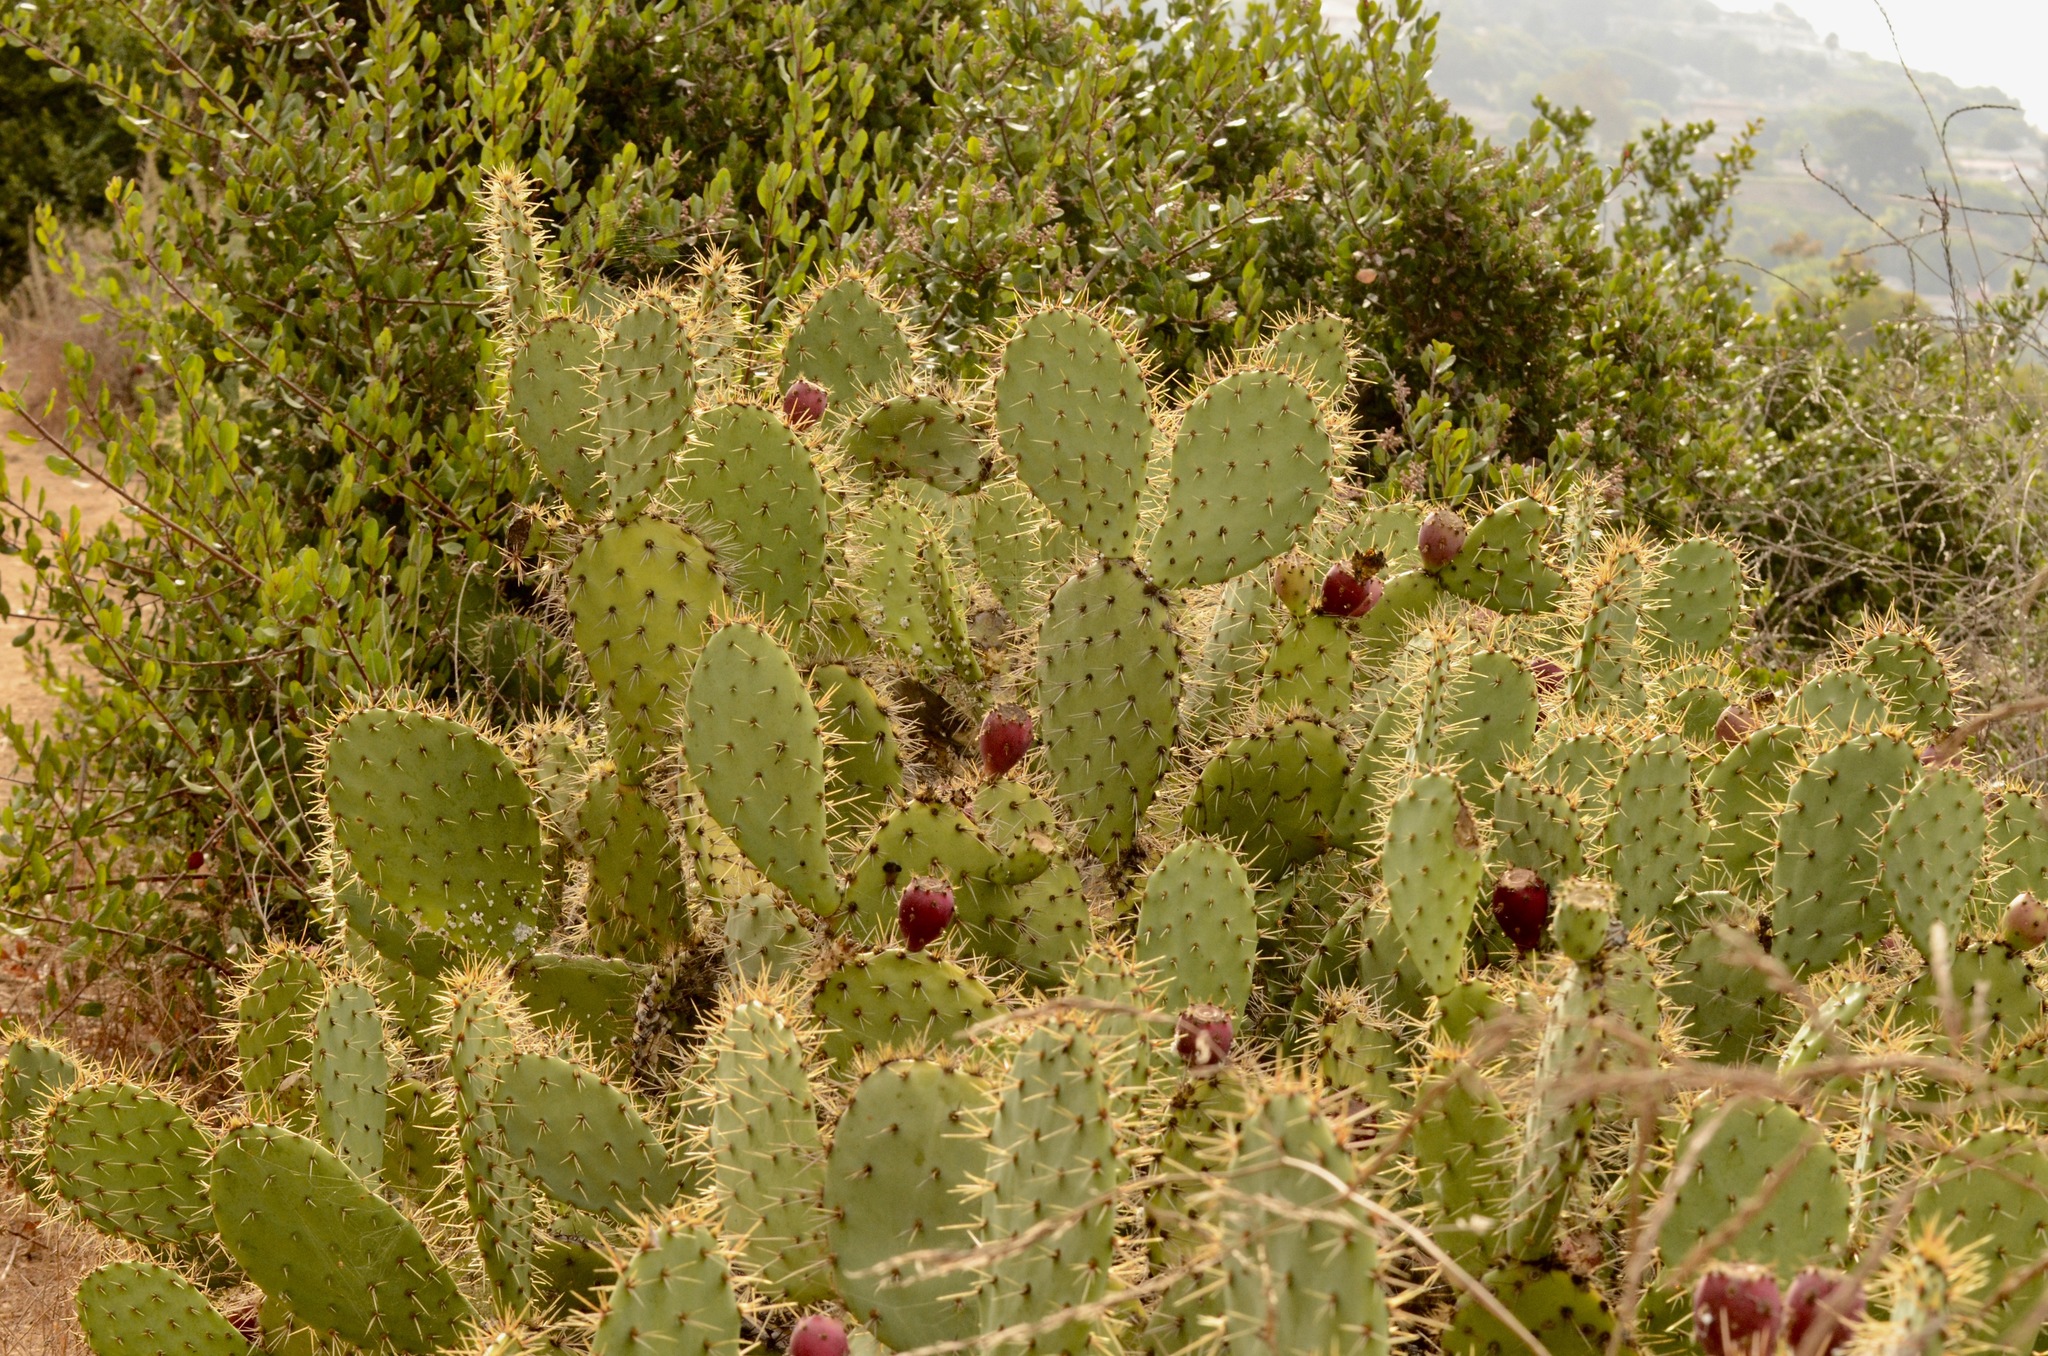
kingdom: Plantae
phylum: Tracheophyta
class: Magnoliopsida
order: Caryophyllales
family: Cactaceae
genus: Opuntia
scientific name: Opuntia littoralis
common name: Coastal prickly-pear
